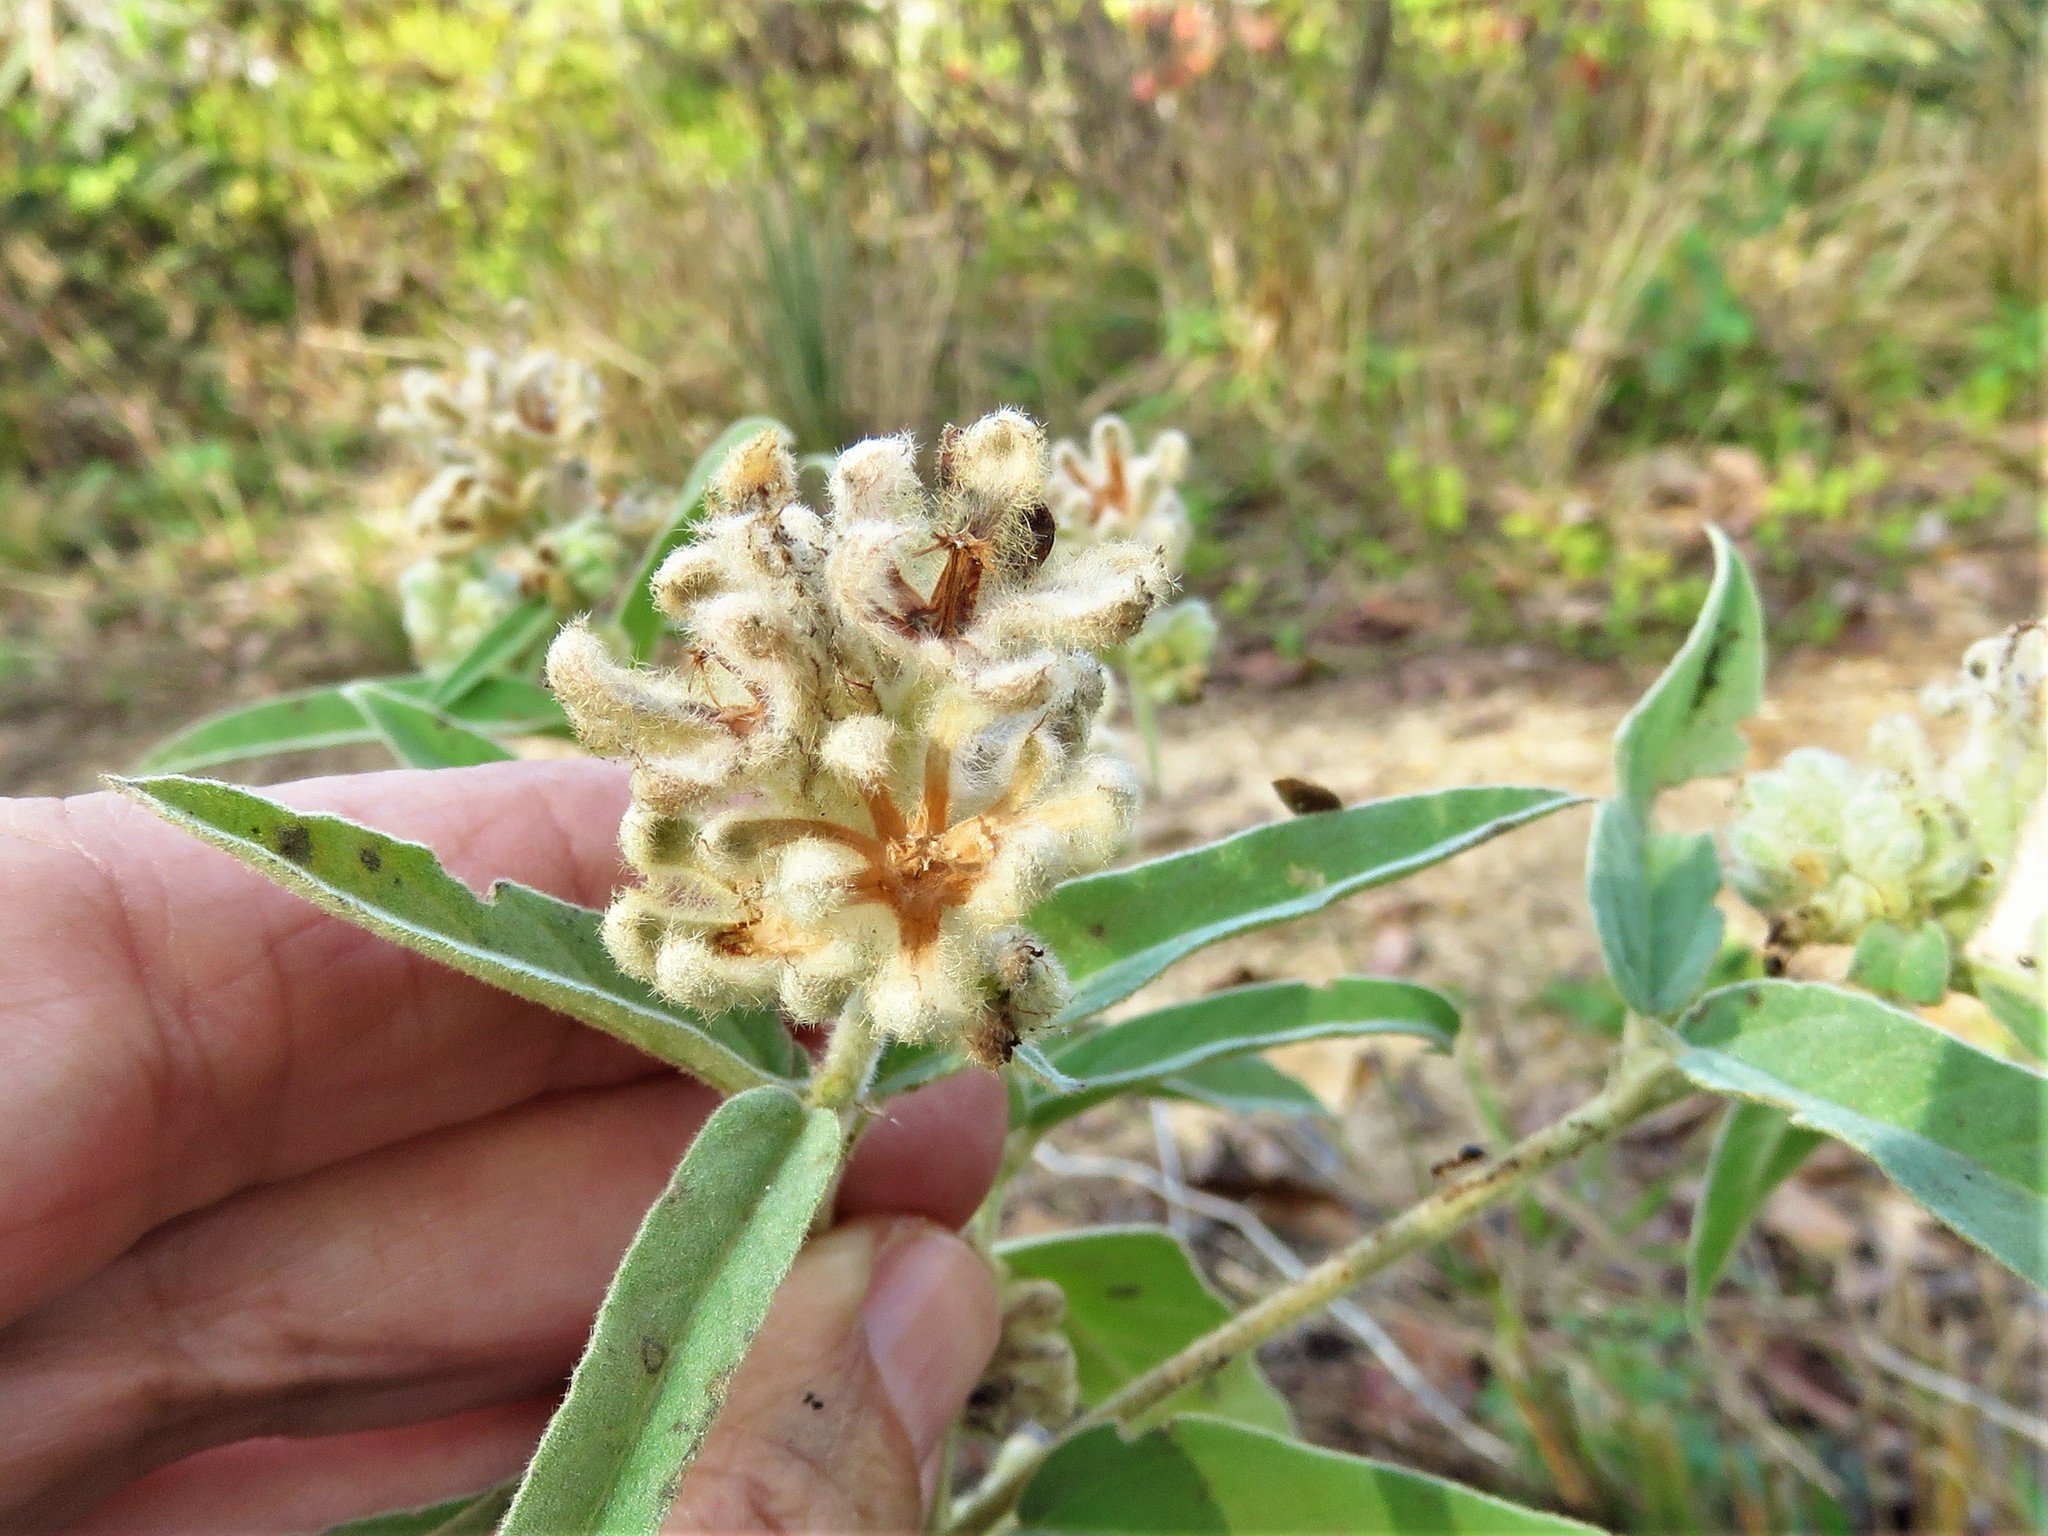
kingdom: Plantae
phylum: Tracheophyta
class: Magnoliopsida
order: Malpighiales
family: Euphorbiaceae
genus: Croton
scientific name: Croton lindheimeri
